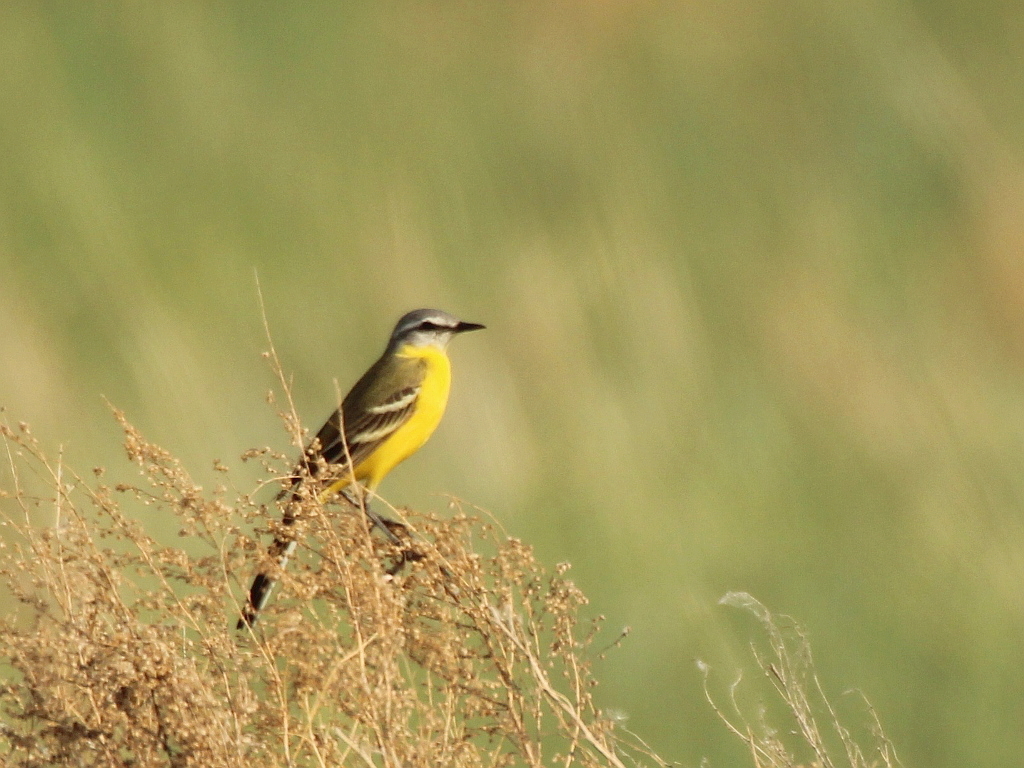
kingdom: Animalia
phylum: Chordata
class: Aves
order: Passeriformes
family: Motacillidae
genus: Motacilla
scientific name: Motacilla flava
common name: Western yellow wagtail
